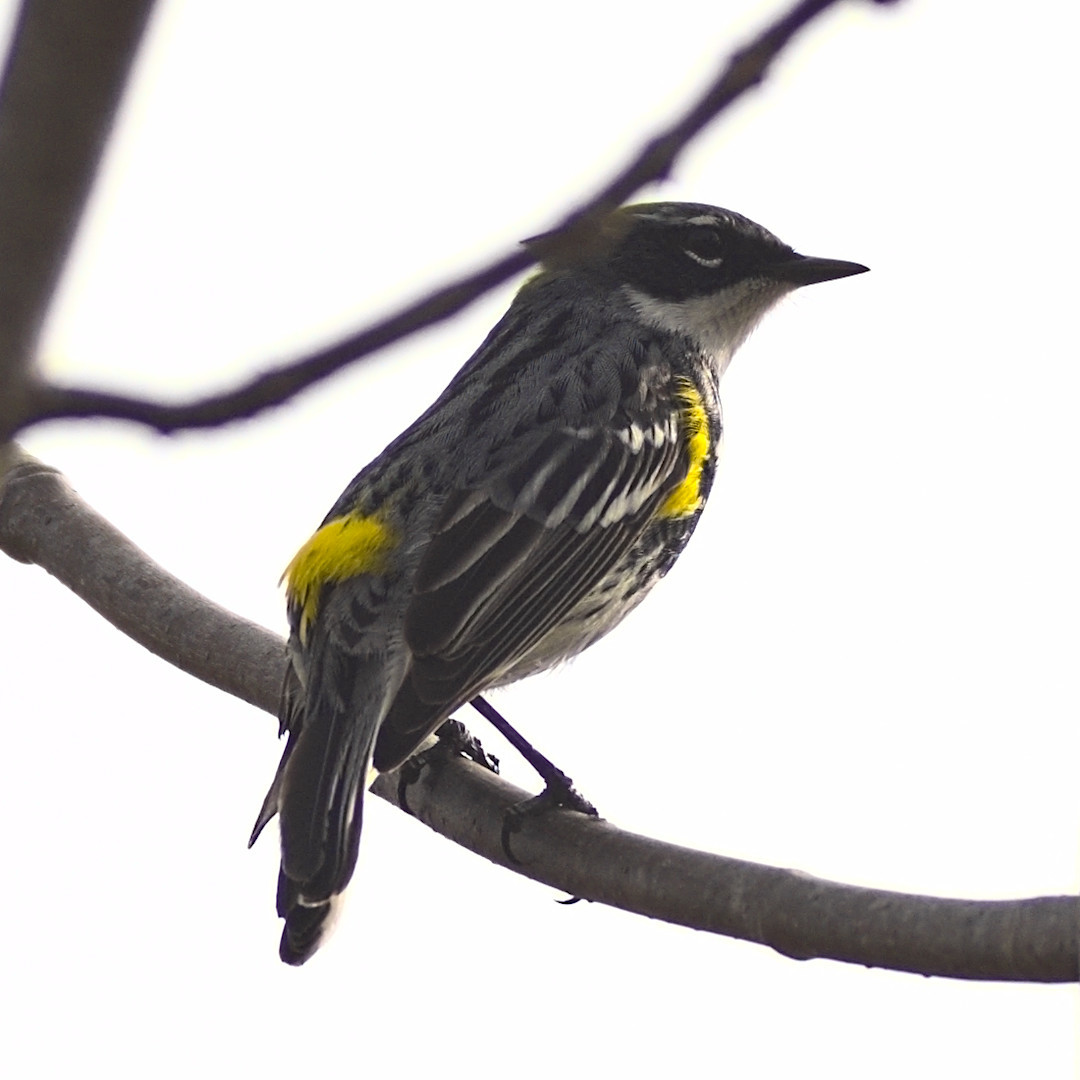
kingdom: Animalia
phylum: Chordata
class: Aves
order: Passeriformes
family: Parulidae
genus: Setophaga
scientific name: Setophaga coronata
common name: Myrtle warbler
